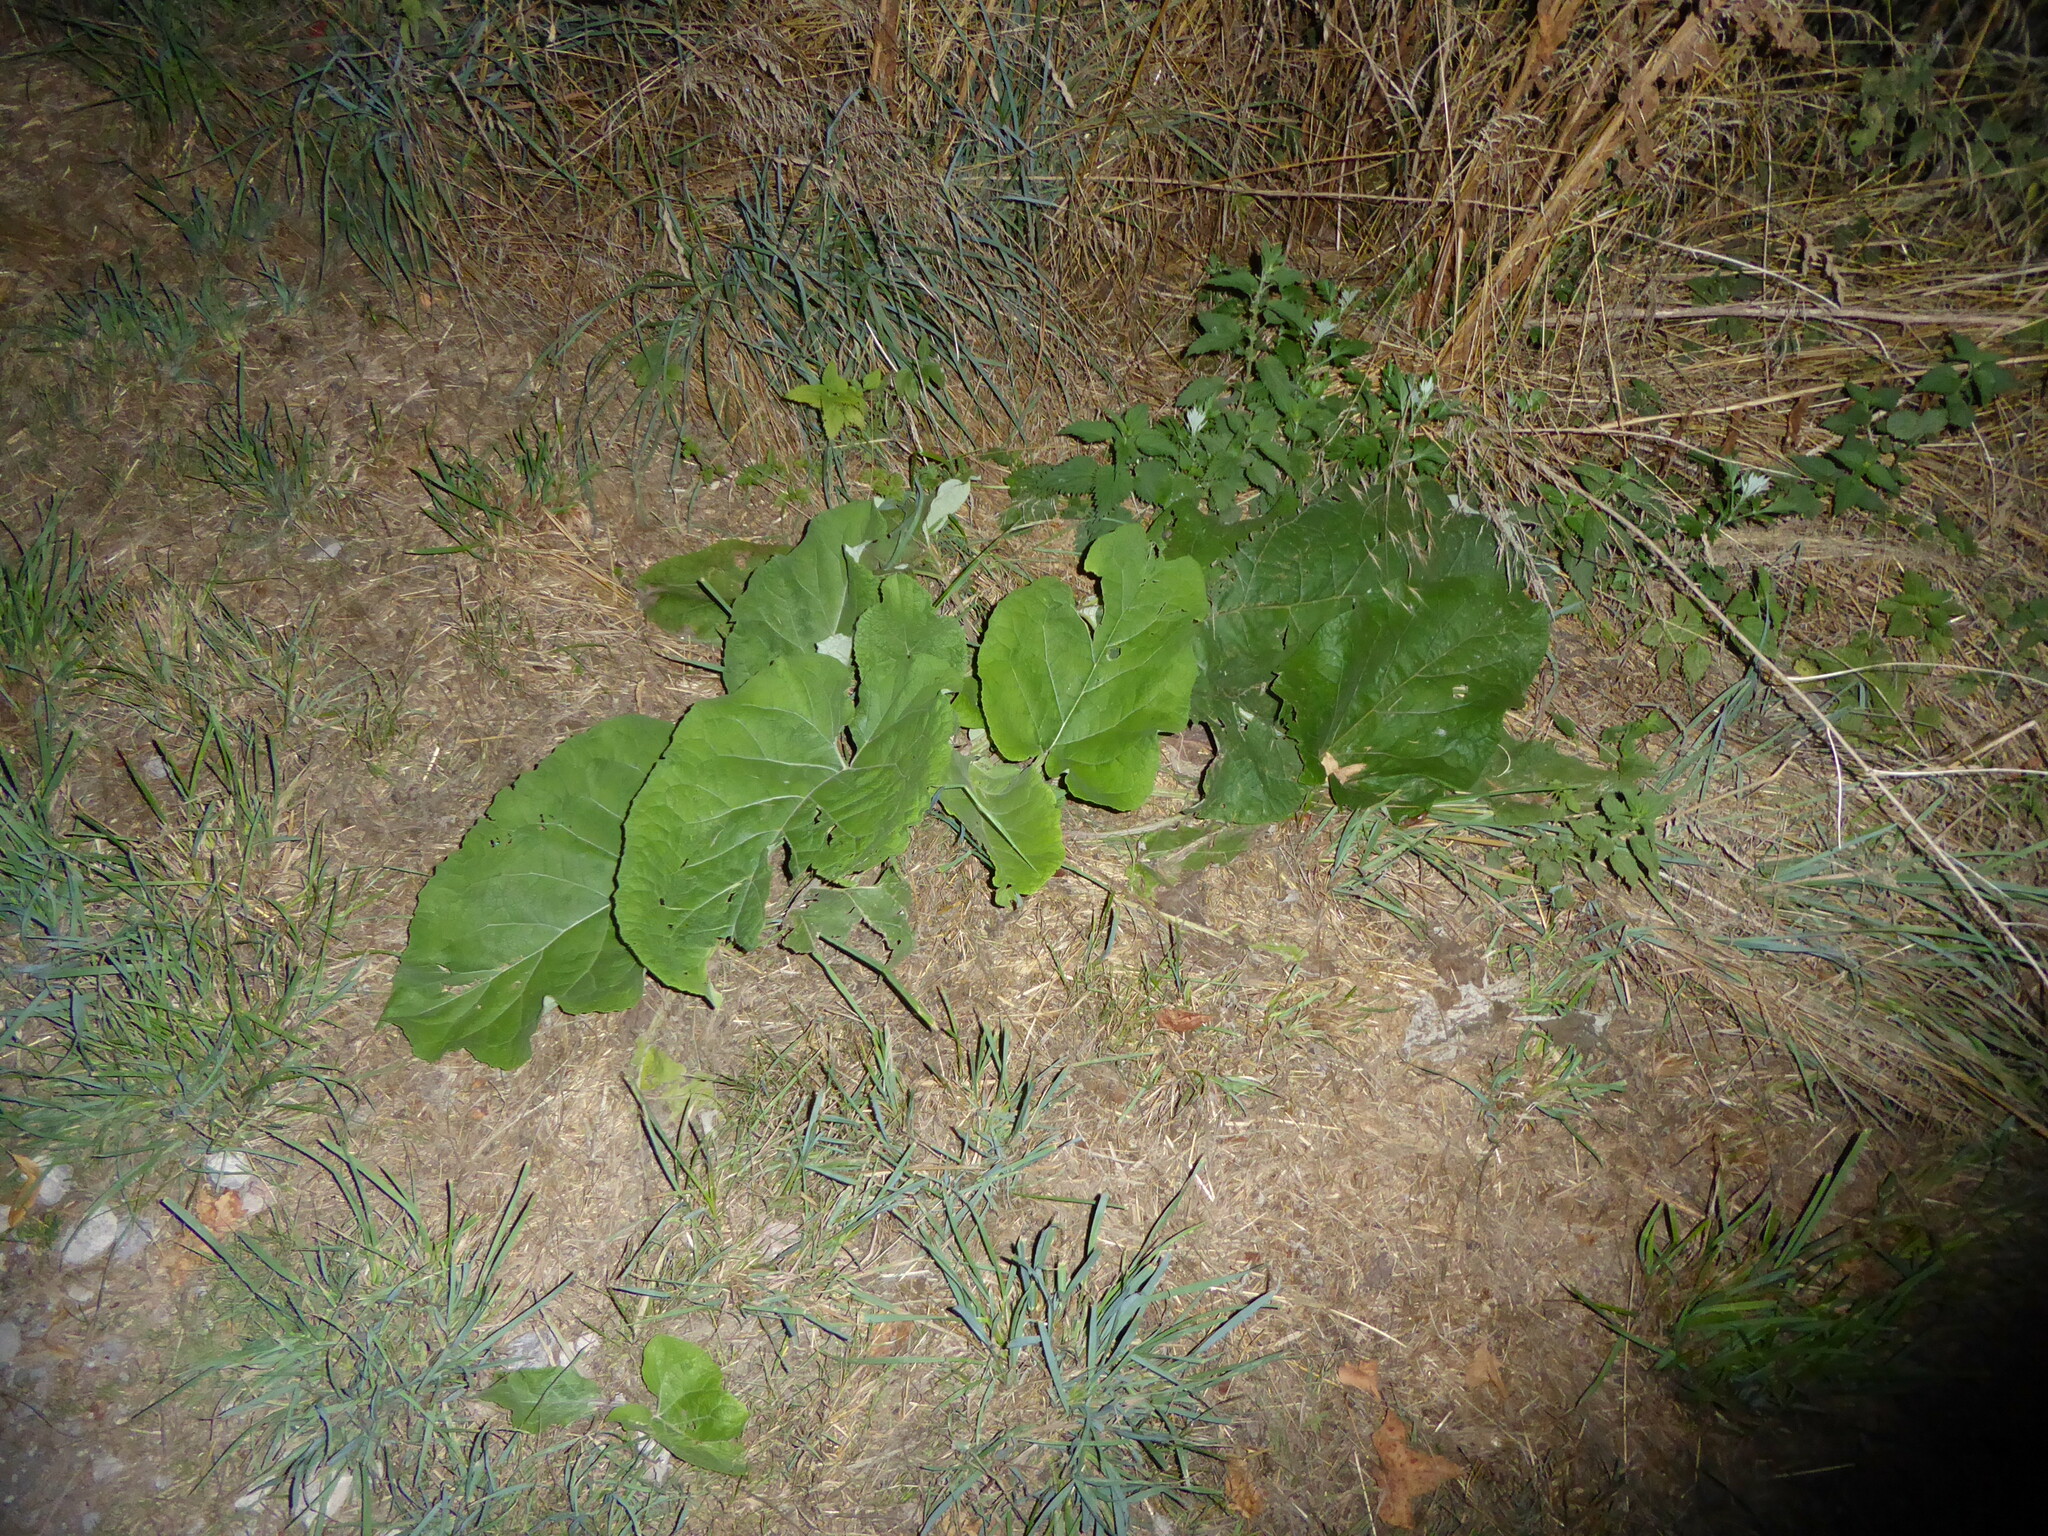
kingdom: Plantae
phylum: Tracheophyta
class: Magnoliopsida
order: Asterales
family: Asteraceae
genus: Arctium
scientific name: Arctium lappa
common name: Greater burdock
